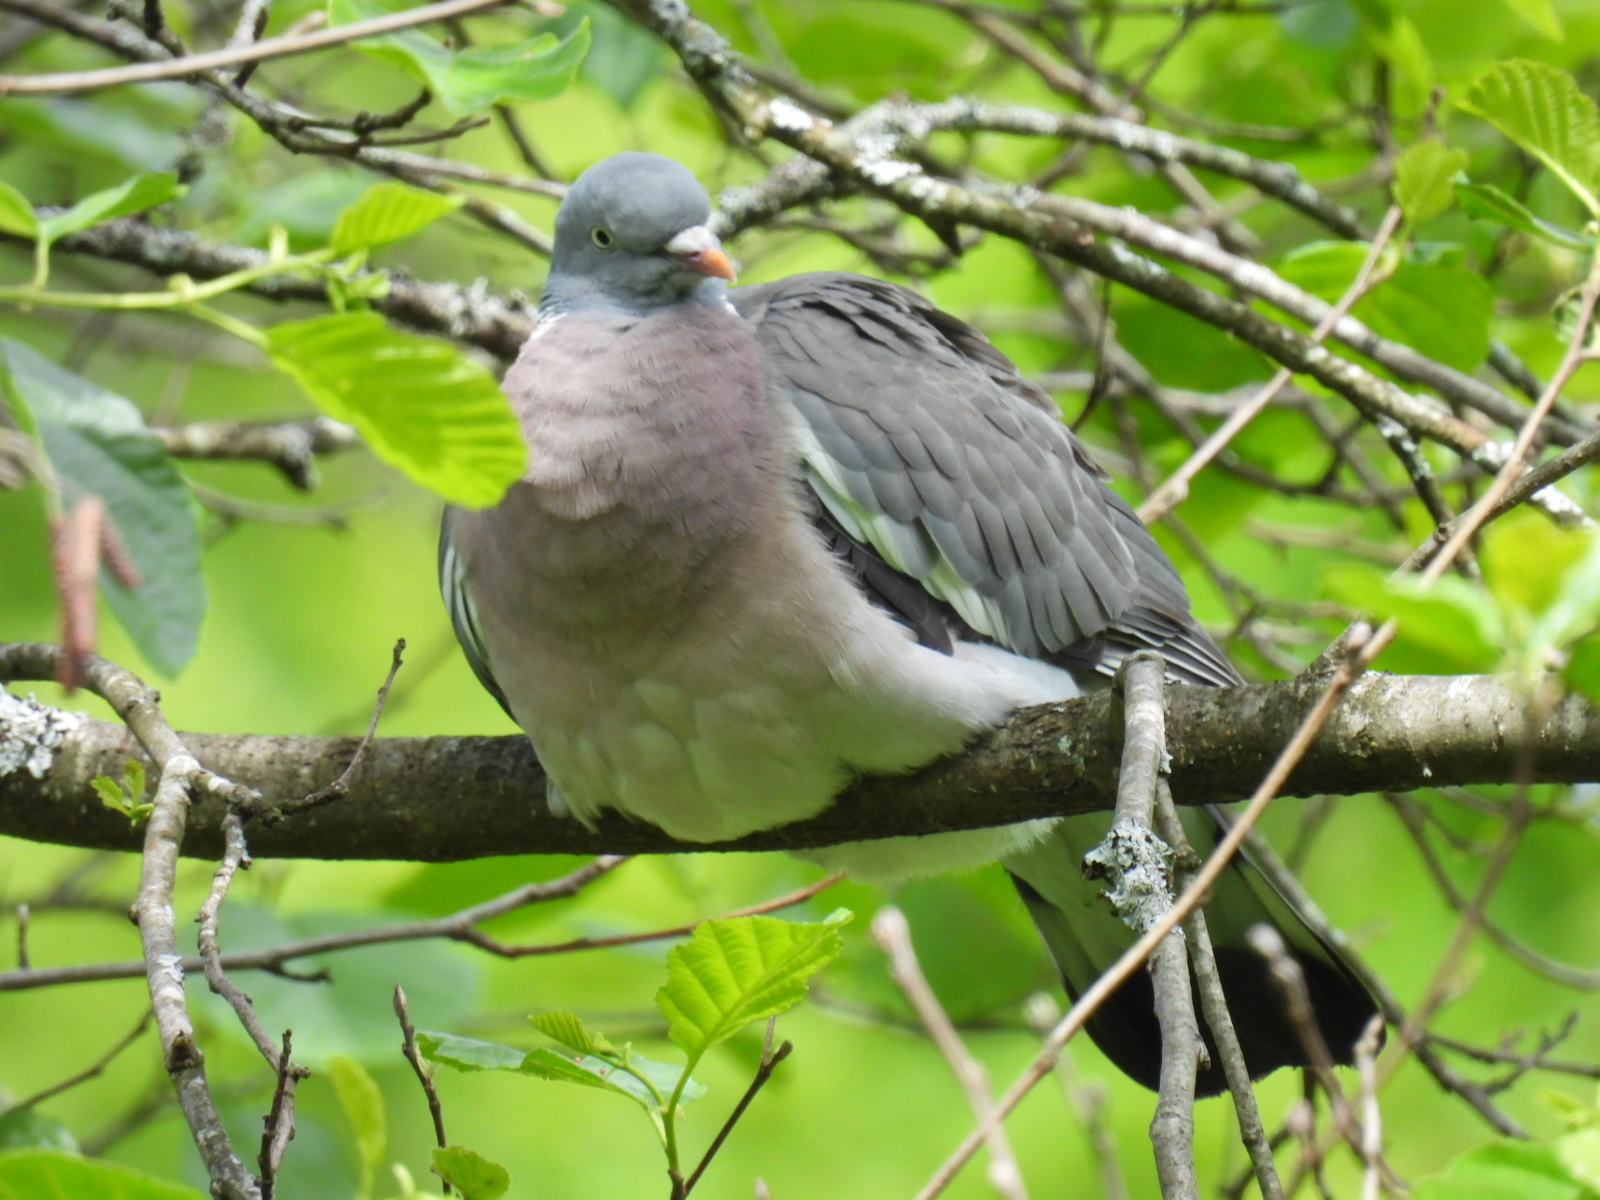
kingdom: Animalia
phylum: Chordata
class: Aves
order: Columbiformes
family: Columbidae
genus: Columba
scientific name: Columba palumbus
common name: Common wood pigeon
